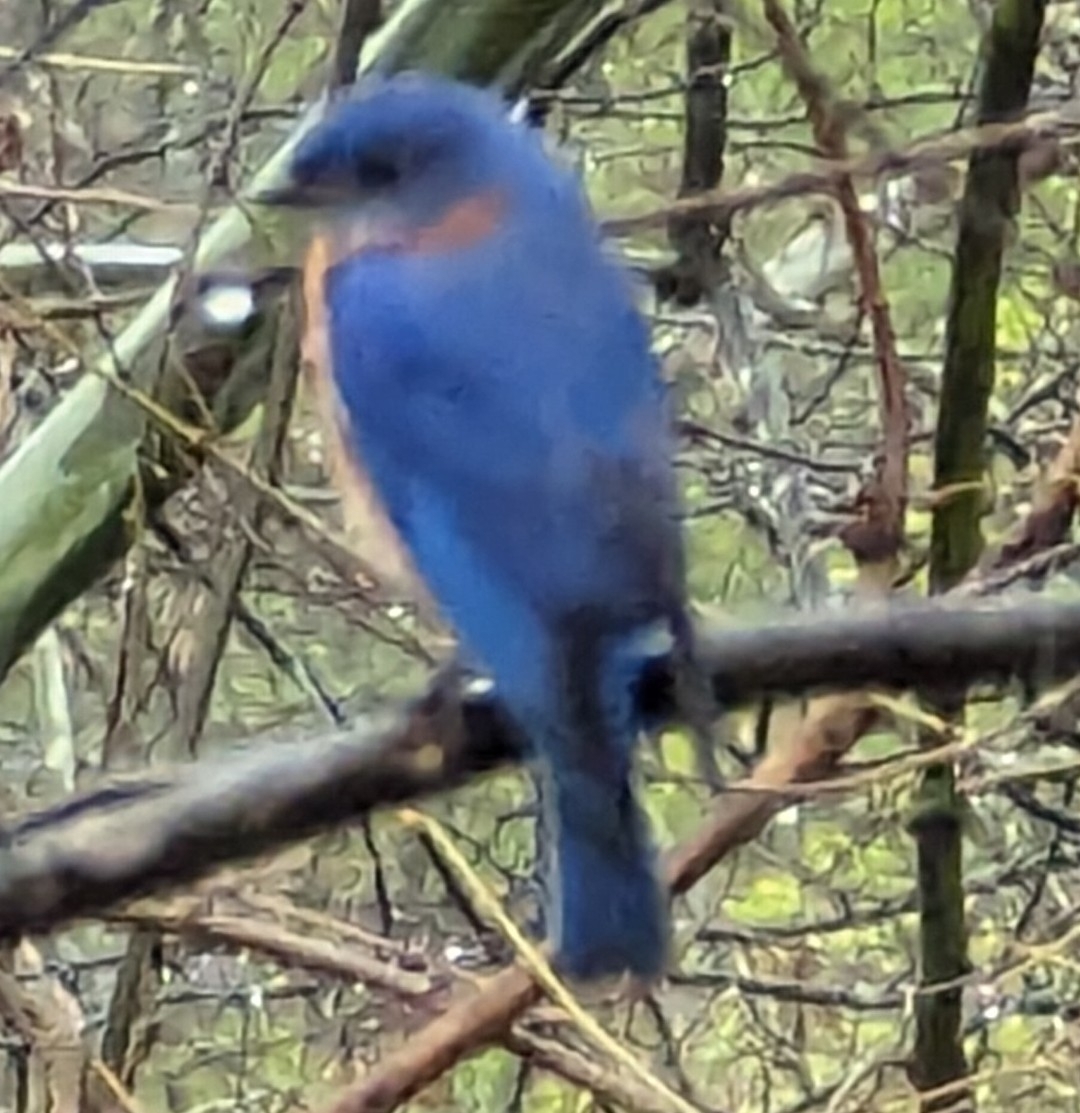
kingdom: Animalia
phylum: Chordata
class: Aves
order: Passeriformes
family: Turdidae
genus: Sialia
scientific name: Sialia sialis
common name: Eastern bluebird
